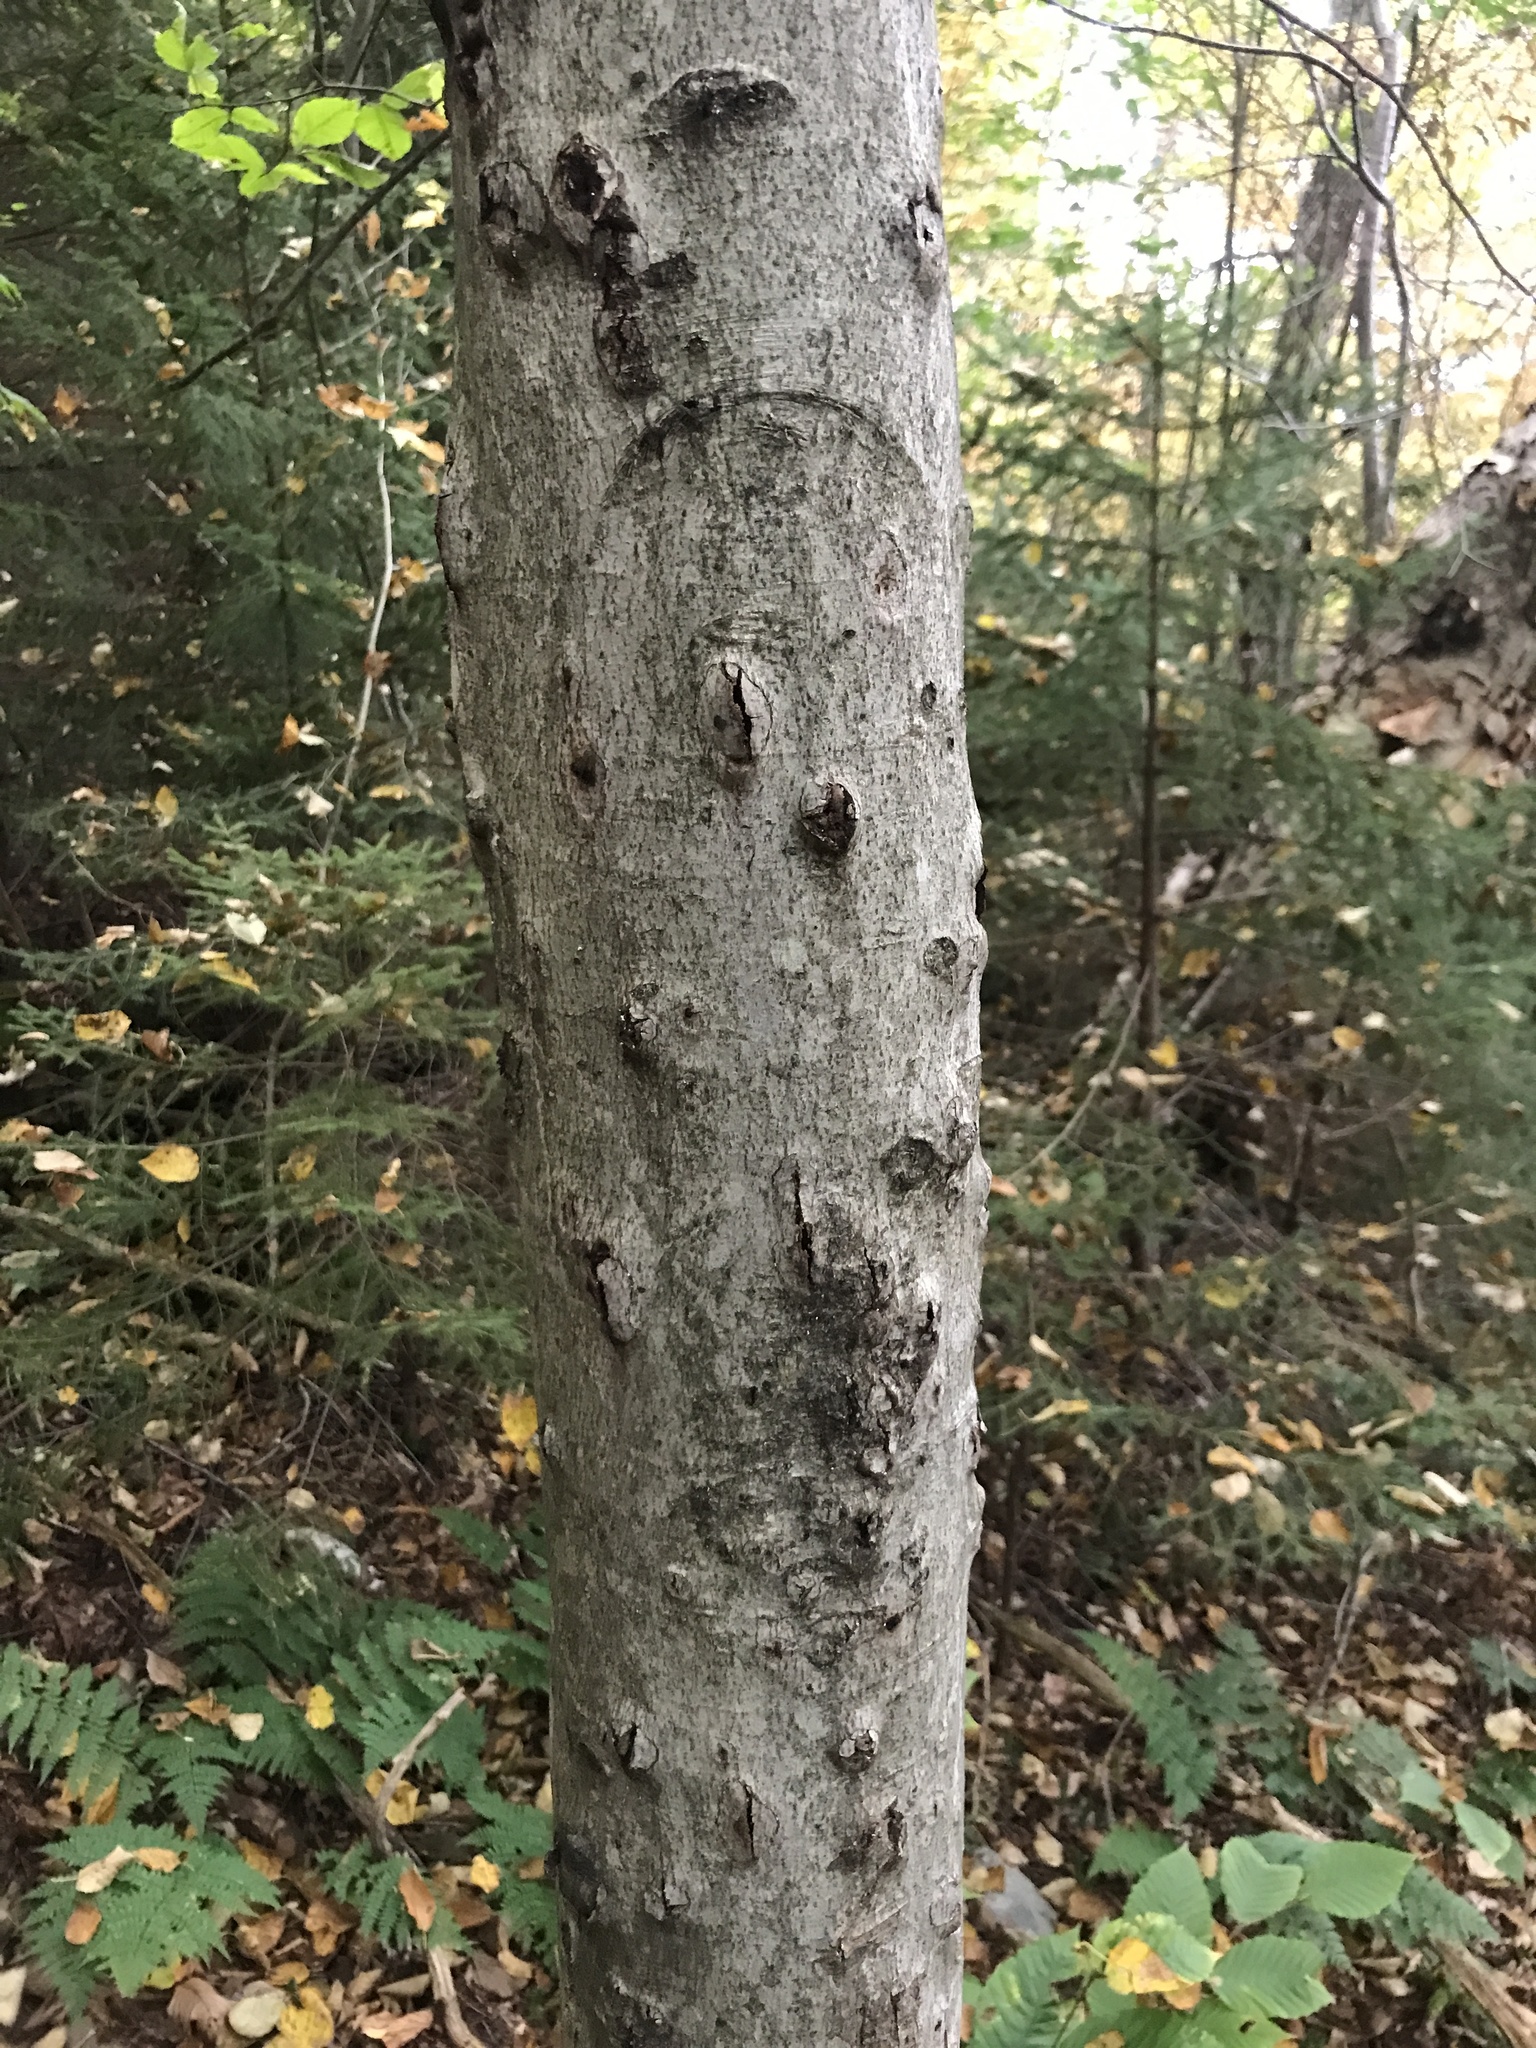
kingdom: Fungi
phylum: Ascomycota
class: Sordariomycetes
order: Hypocreales
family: Nectriaceae
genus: Neonectria
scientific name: Neonectria faginata
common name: Beech bark canker
